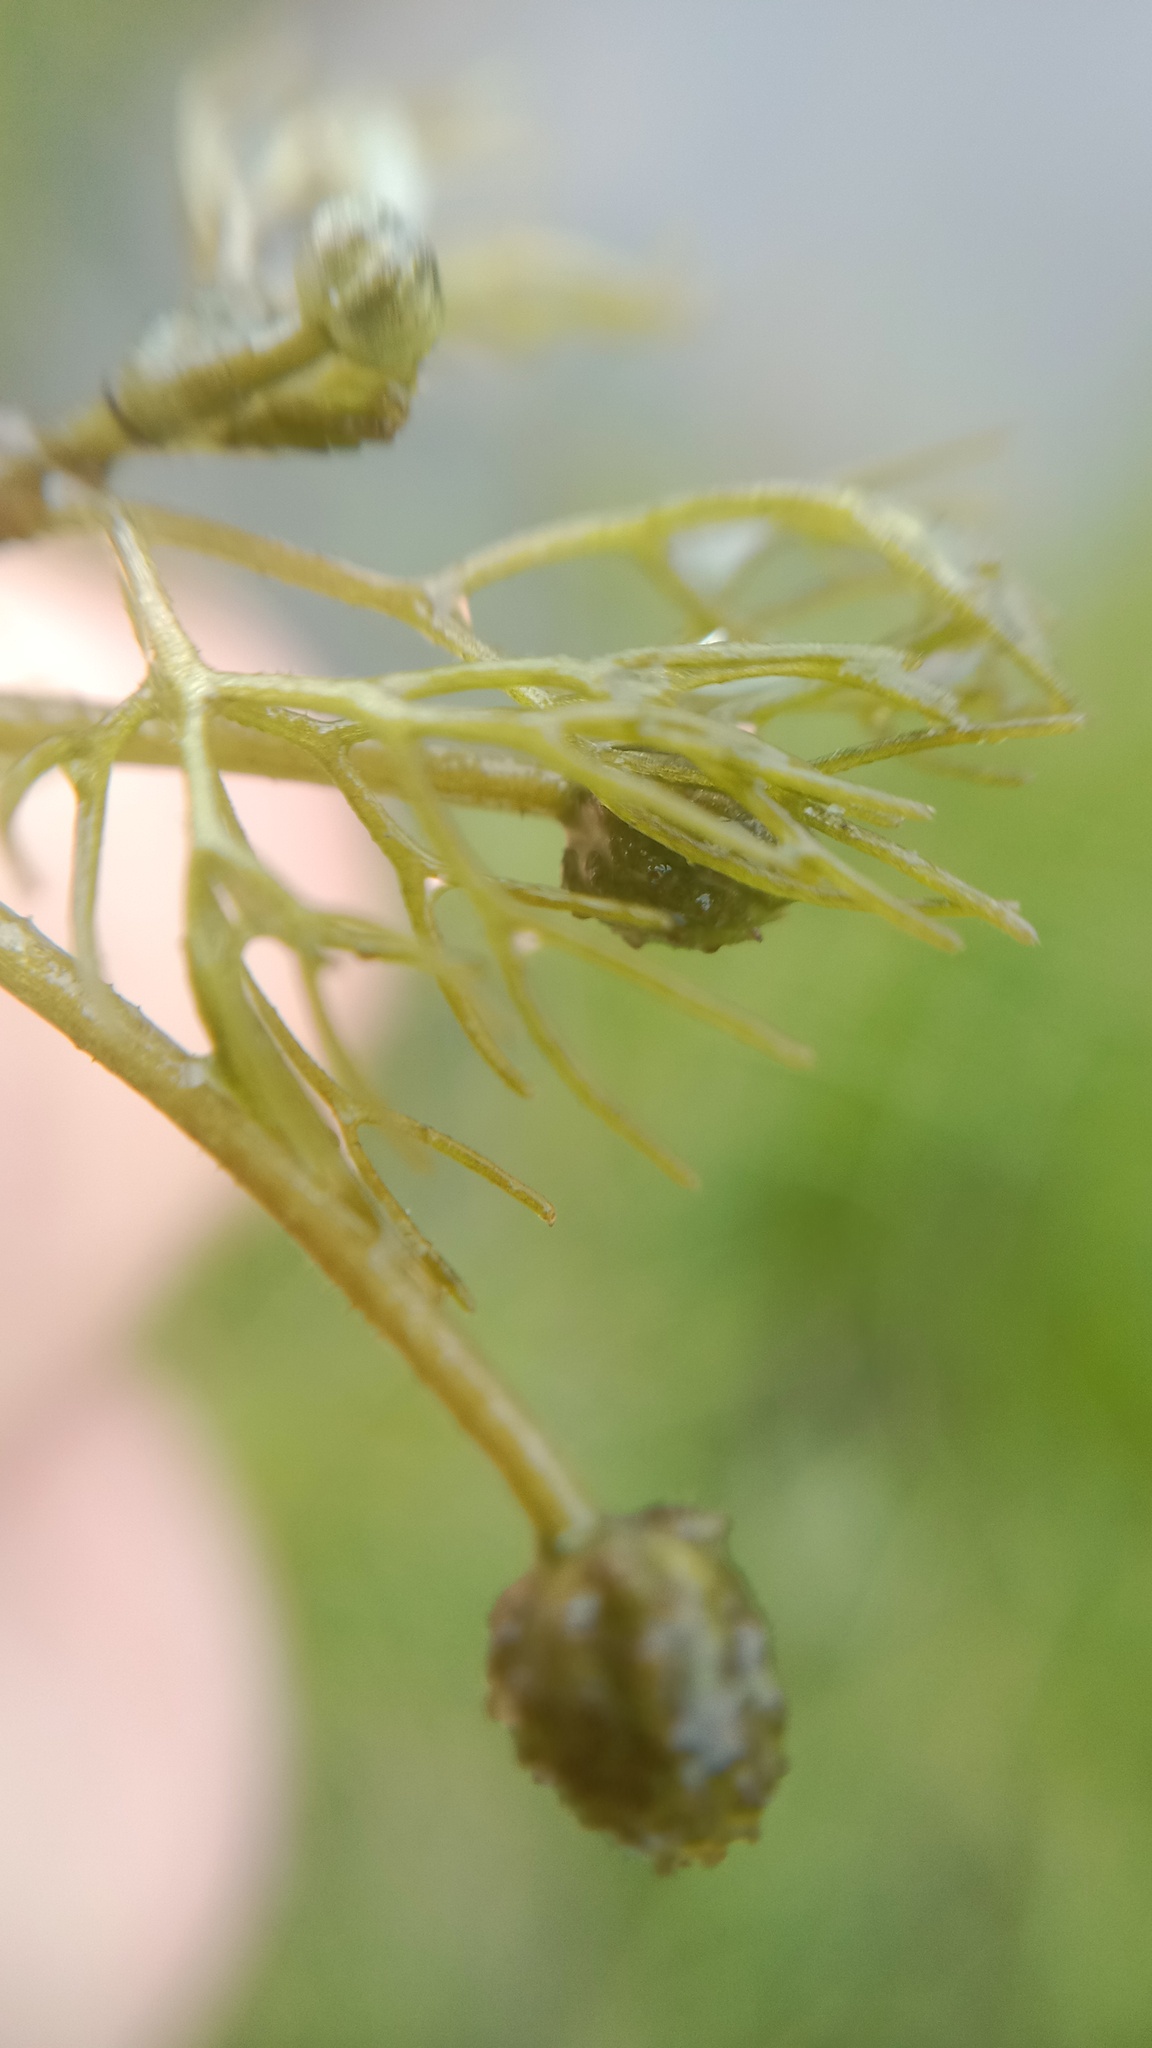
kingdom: Plantae
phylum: Tracheophyta
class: Magnoliopsida
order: Ranunculales
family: Ranunculaceae
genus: Ranunculus
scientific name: Ranunculus trichophyllus
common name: Thread-leaved water-crowfoot
